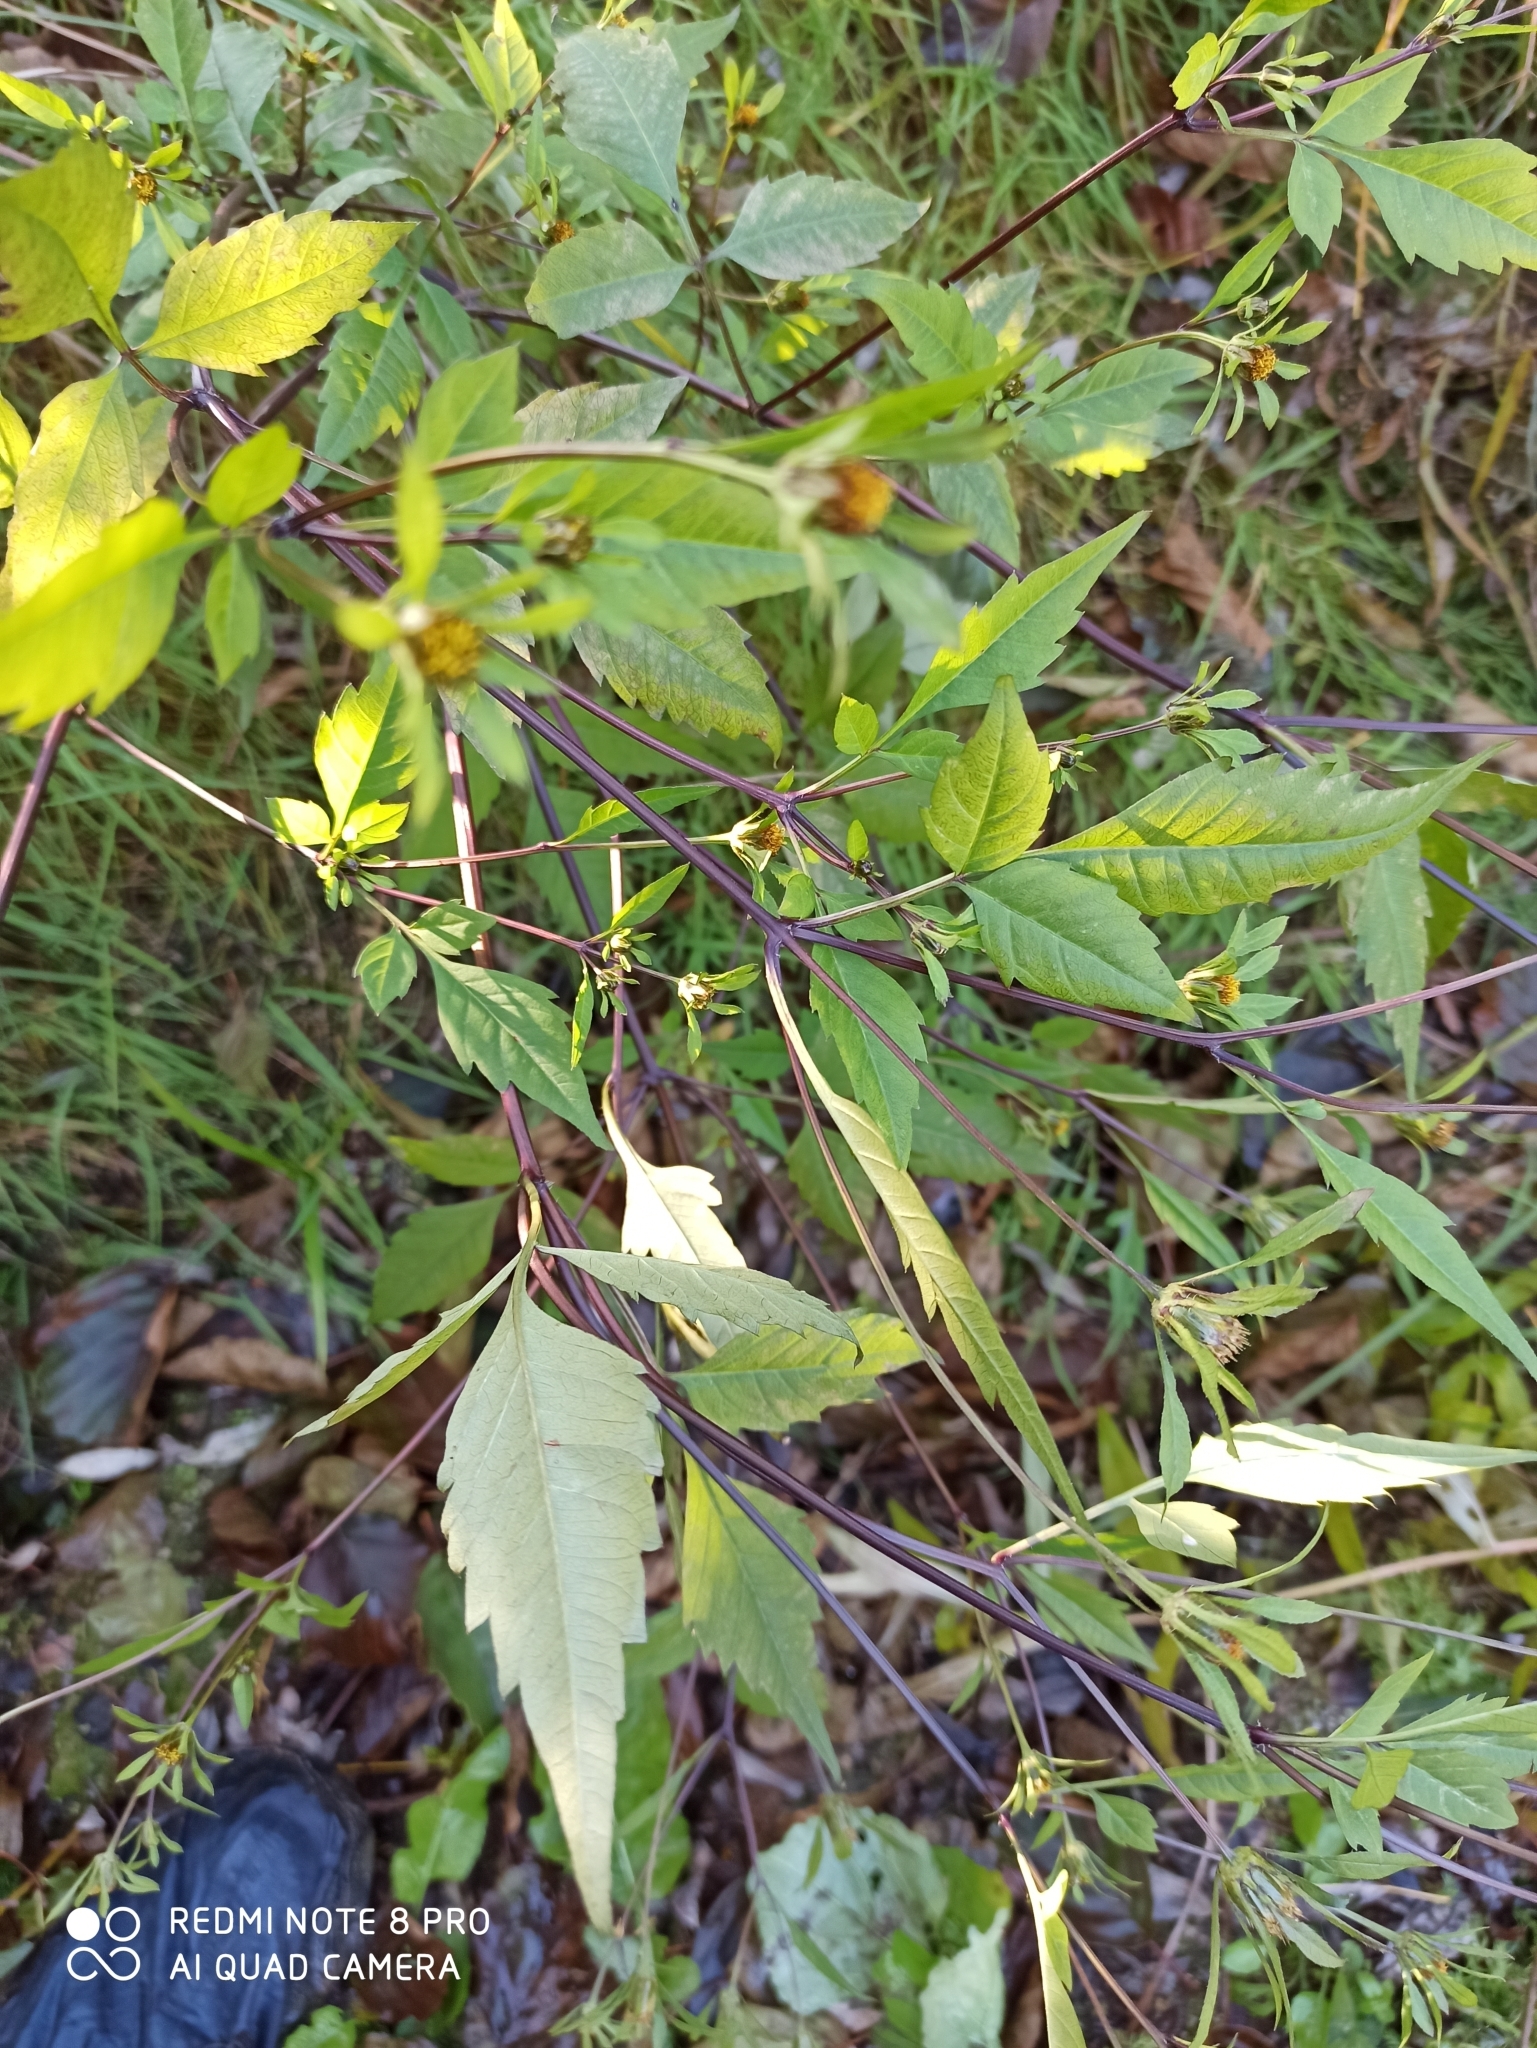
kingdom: Plantae
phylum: Tracheophyta
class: Magnoliopsida
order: Asterales
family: Asteraceae
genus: Bidens
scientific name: Bidens frondosa
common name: Beggarticks
